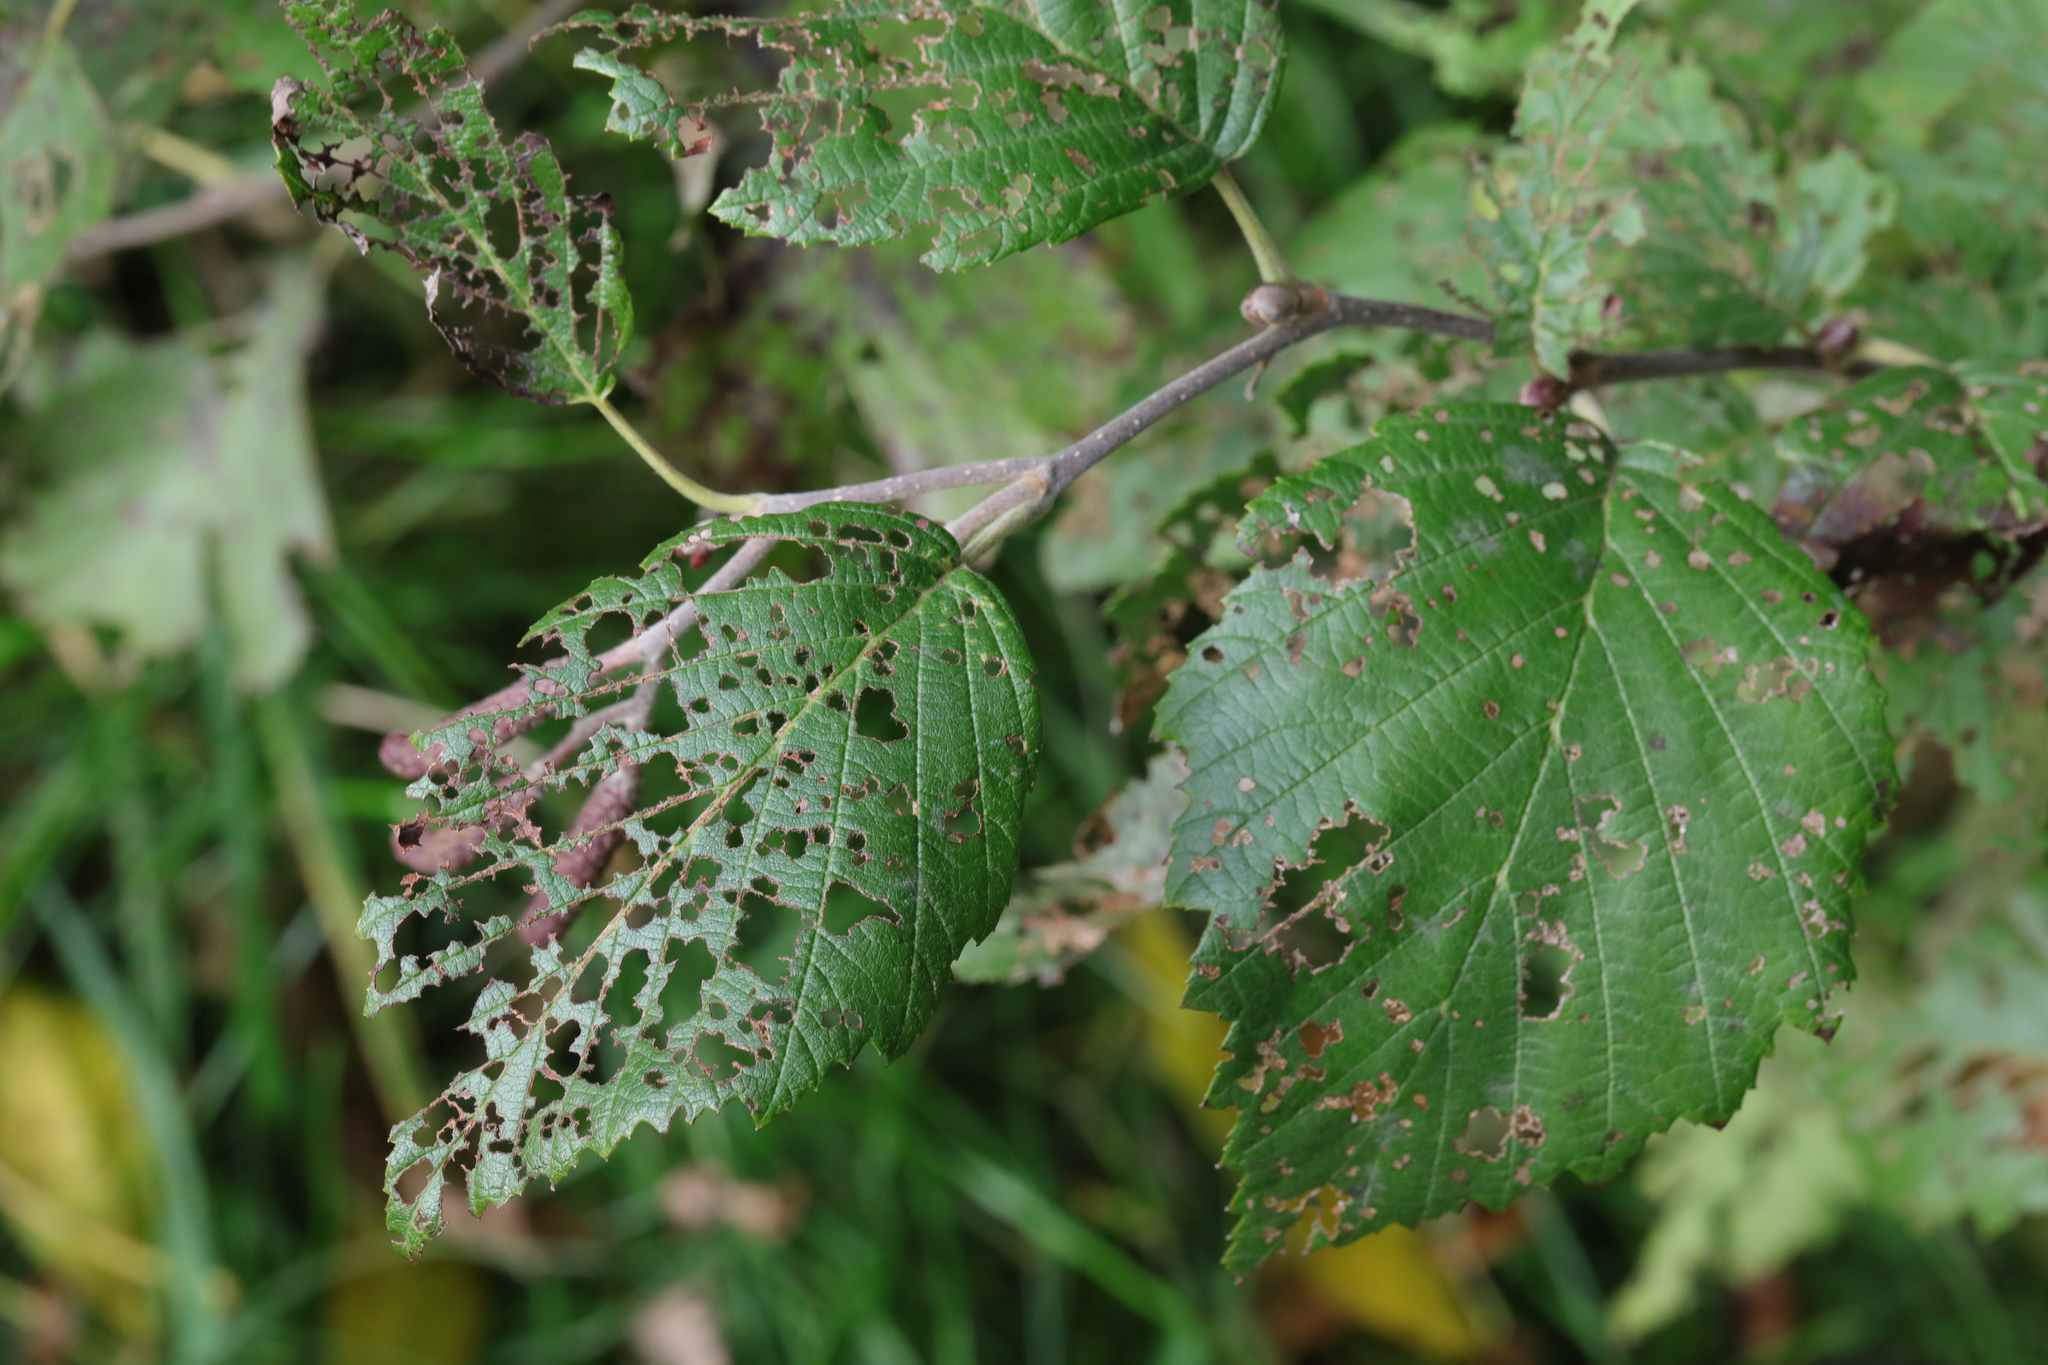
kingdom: Plantae
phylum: Tracheophyta
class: Magnoliopsida
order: Fagales
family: Betulaceae
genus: Alnus
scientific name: Alnus incana
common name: Grey alder
